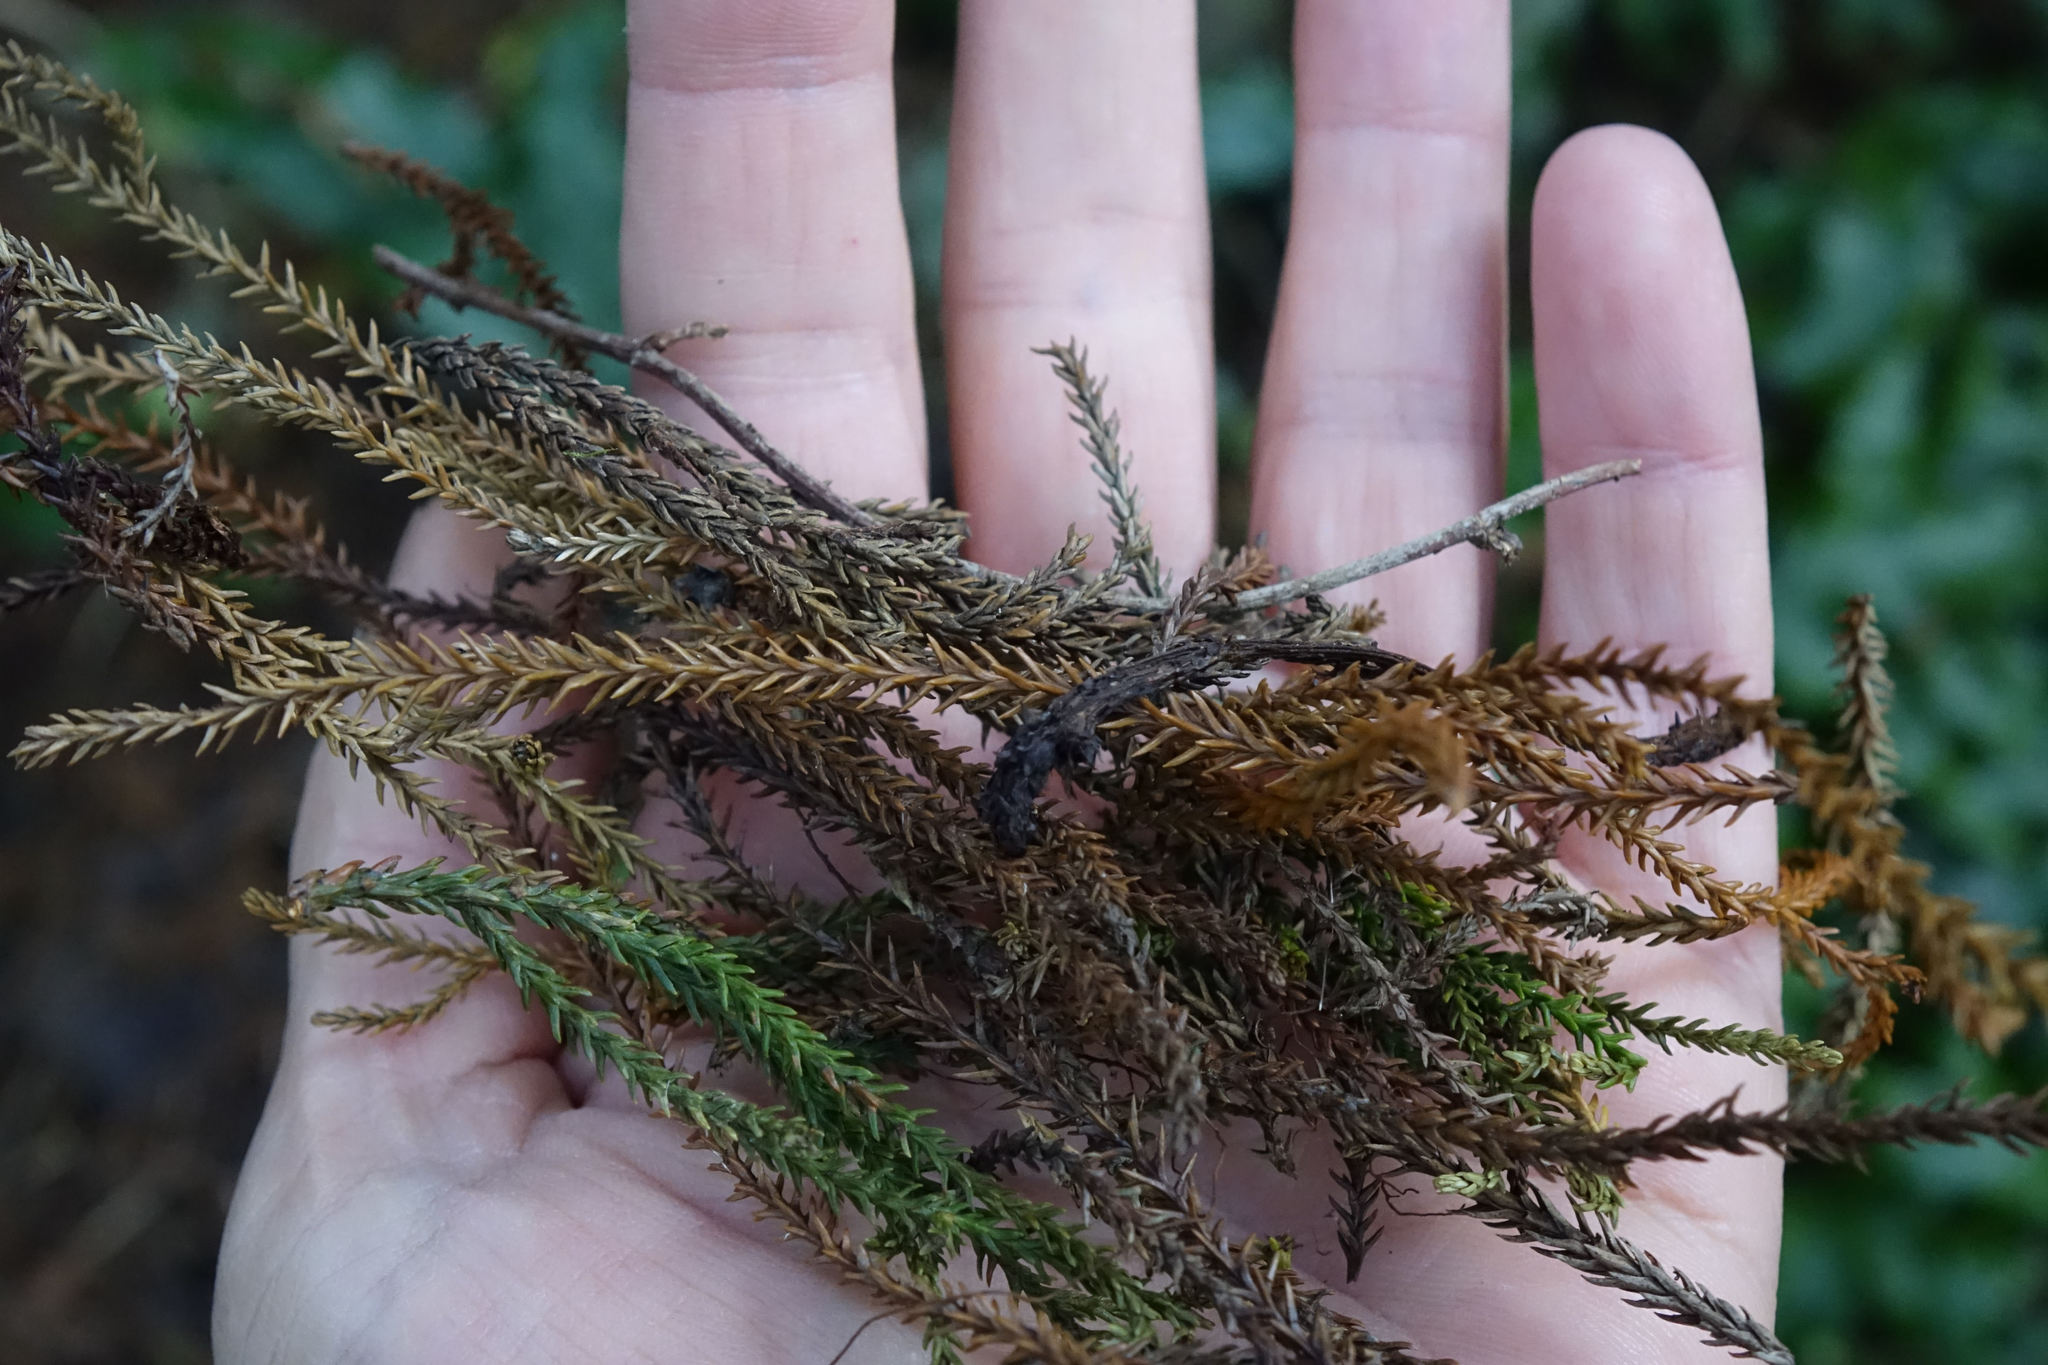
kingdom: Plantae
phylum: Tracheophyta
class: Pinopsida
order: Pinales
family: Podocarpaceae
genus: Dacrydium
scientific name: Dacrydium cupressinum
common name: Red pine
